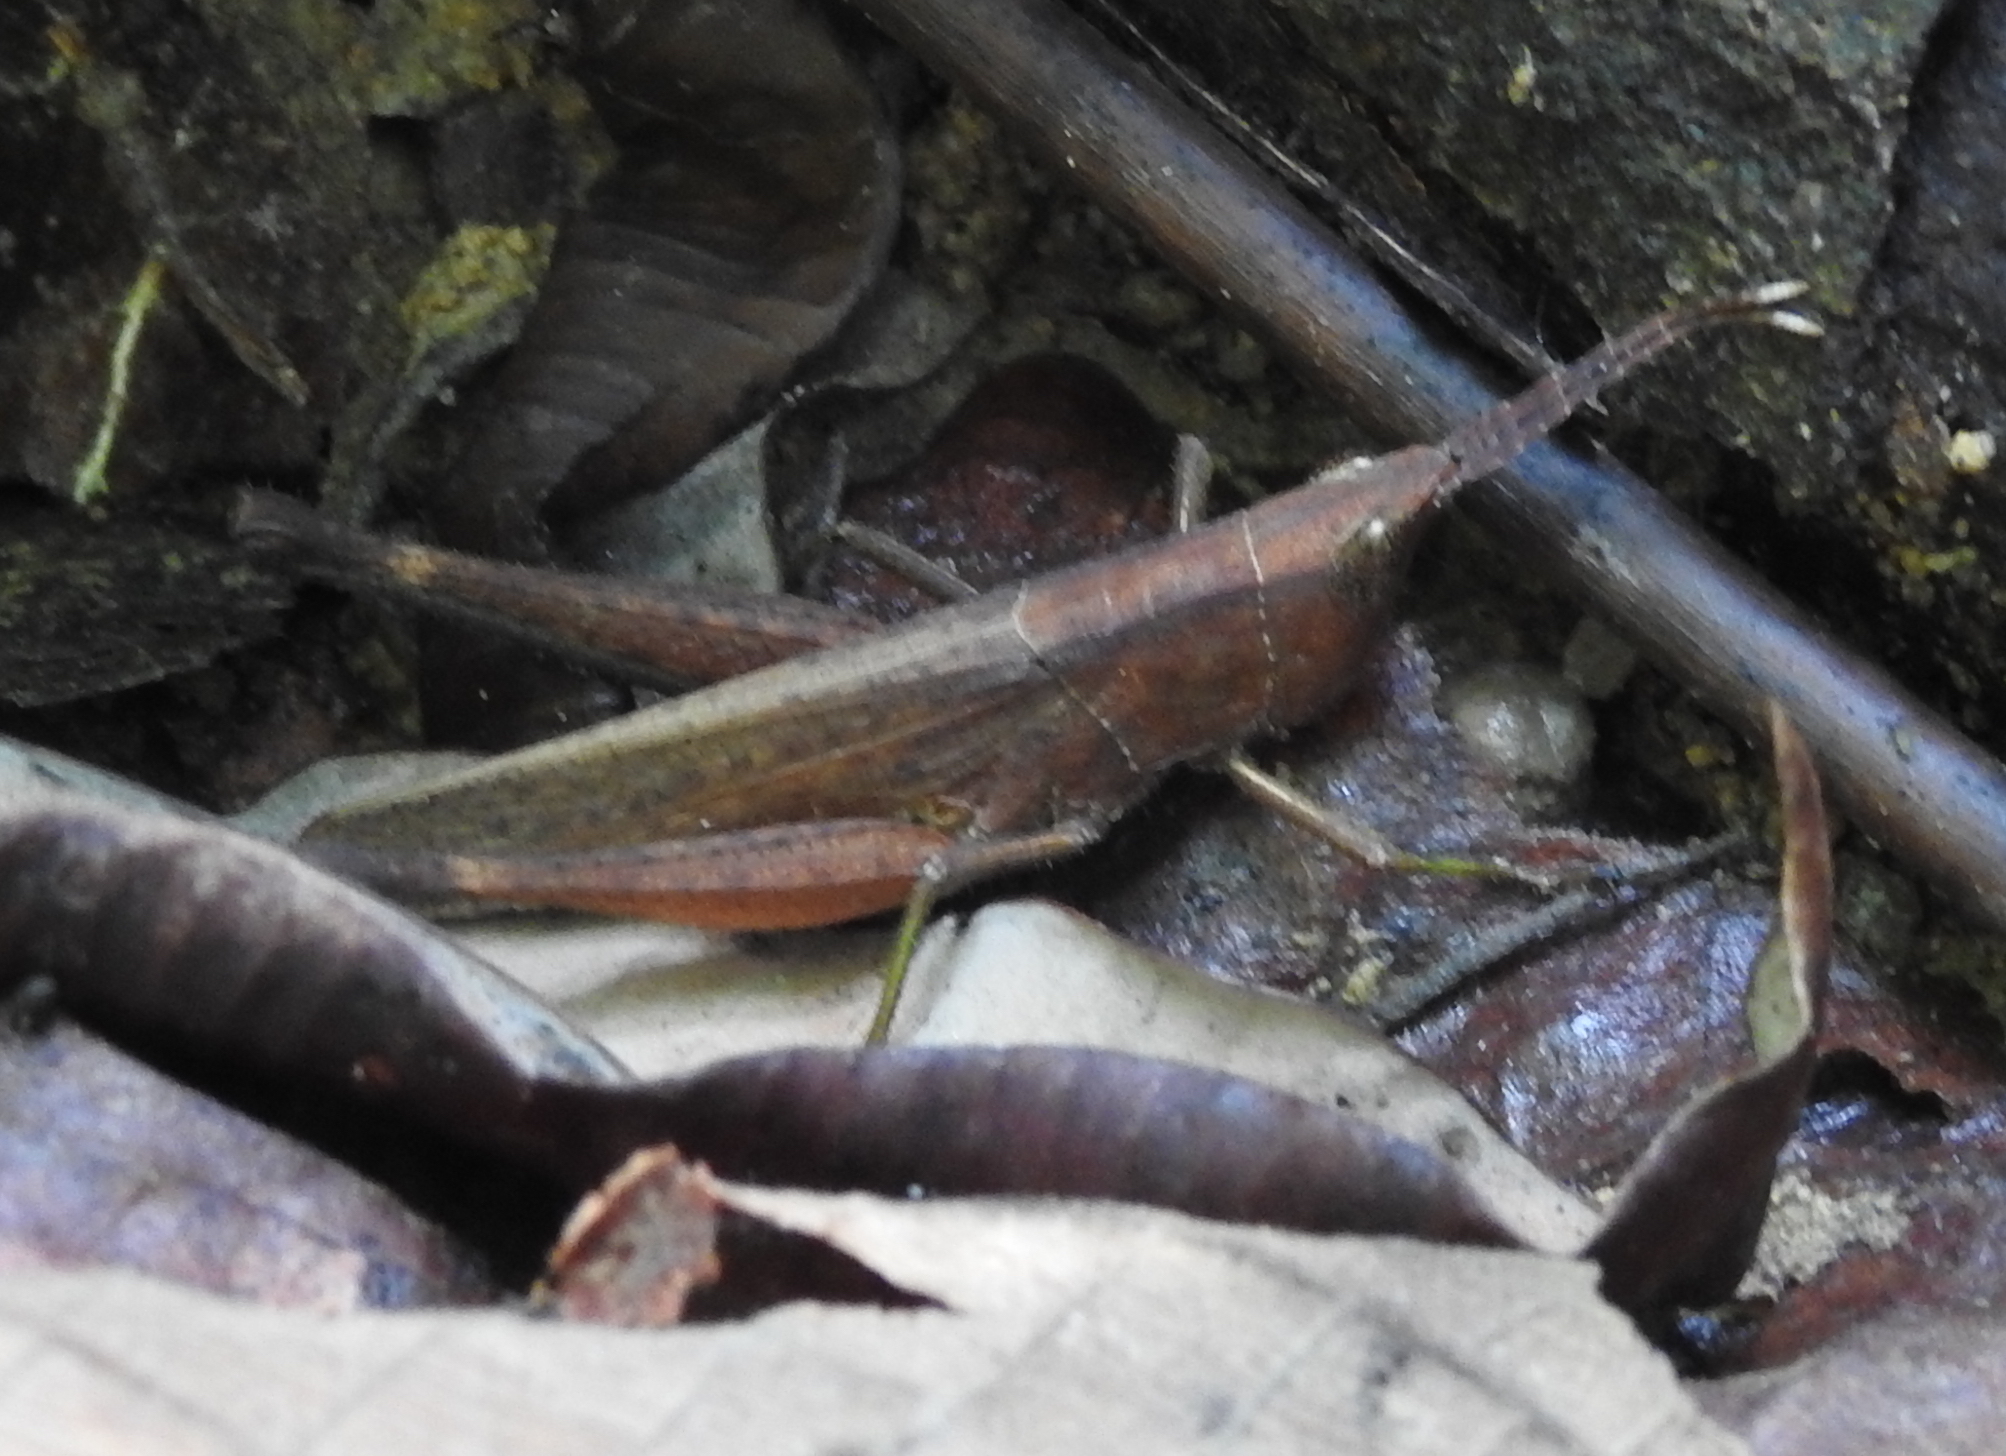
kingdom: Animalia
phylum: Arthropoda
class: Insecta
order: Orthoptera
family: Acrididae
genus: Phlaeoba
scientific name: Phlaeoba antennata
